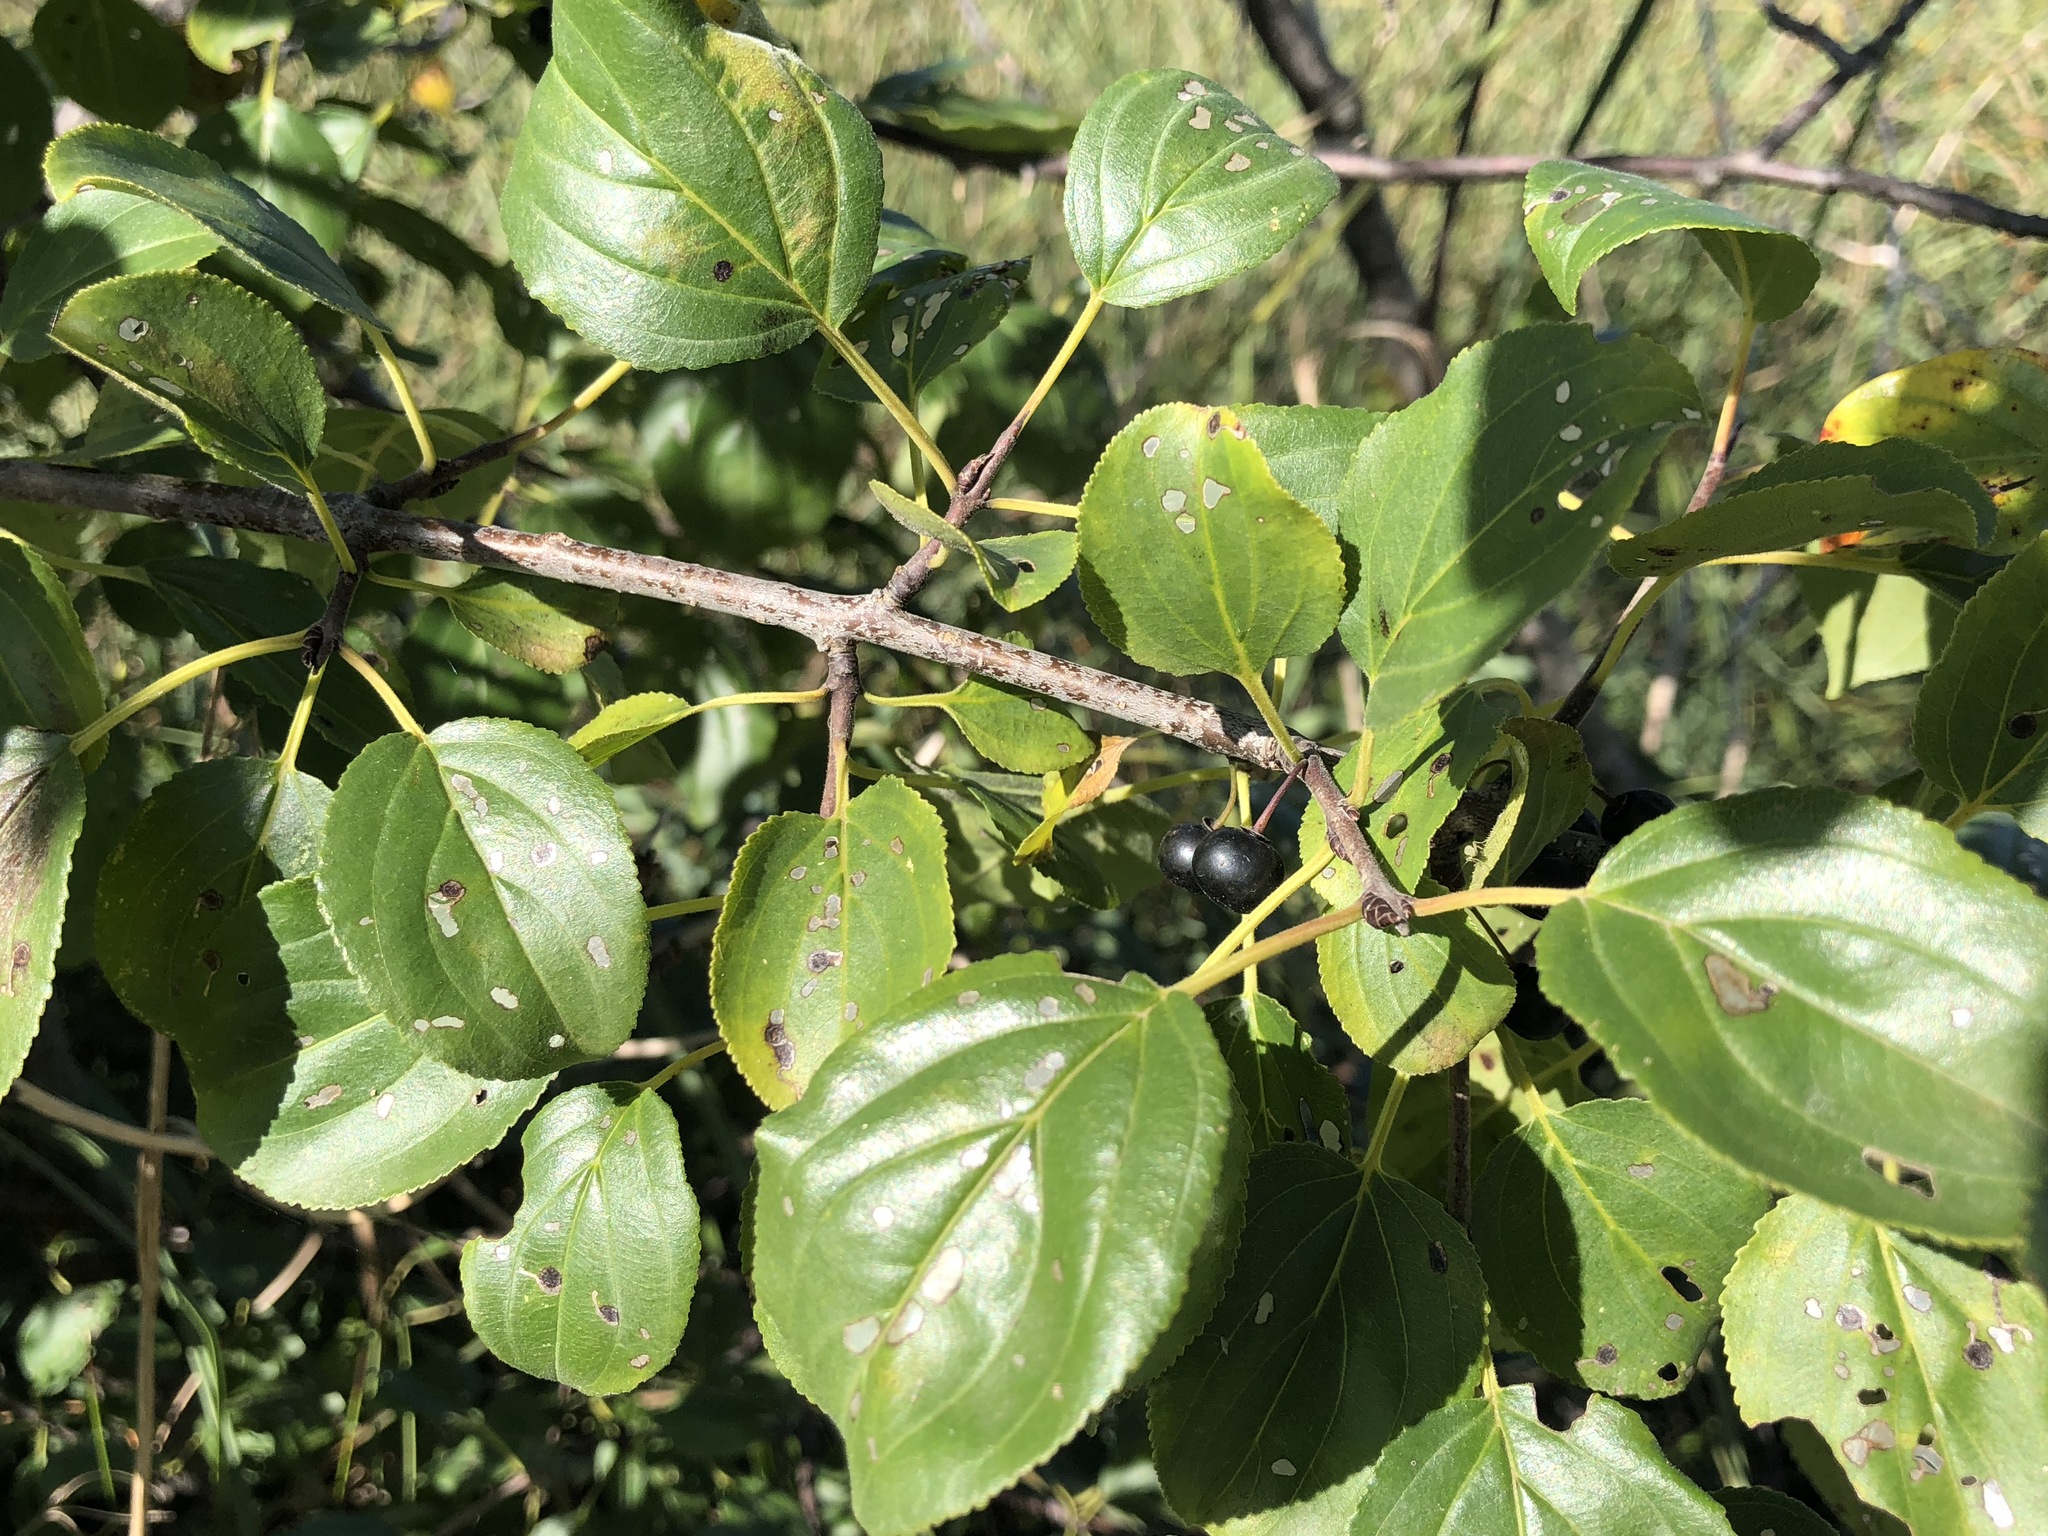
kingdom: Plantae
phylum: Tracheophyta
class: Magnoliopsida
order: Rosales
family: Rhamnaceae
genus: Rhamnus
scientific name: Rhamnus cathartica
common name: Common buckthorn
